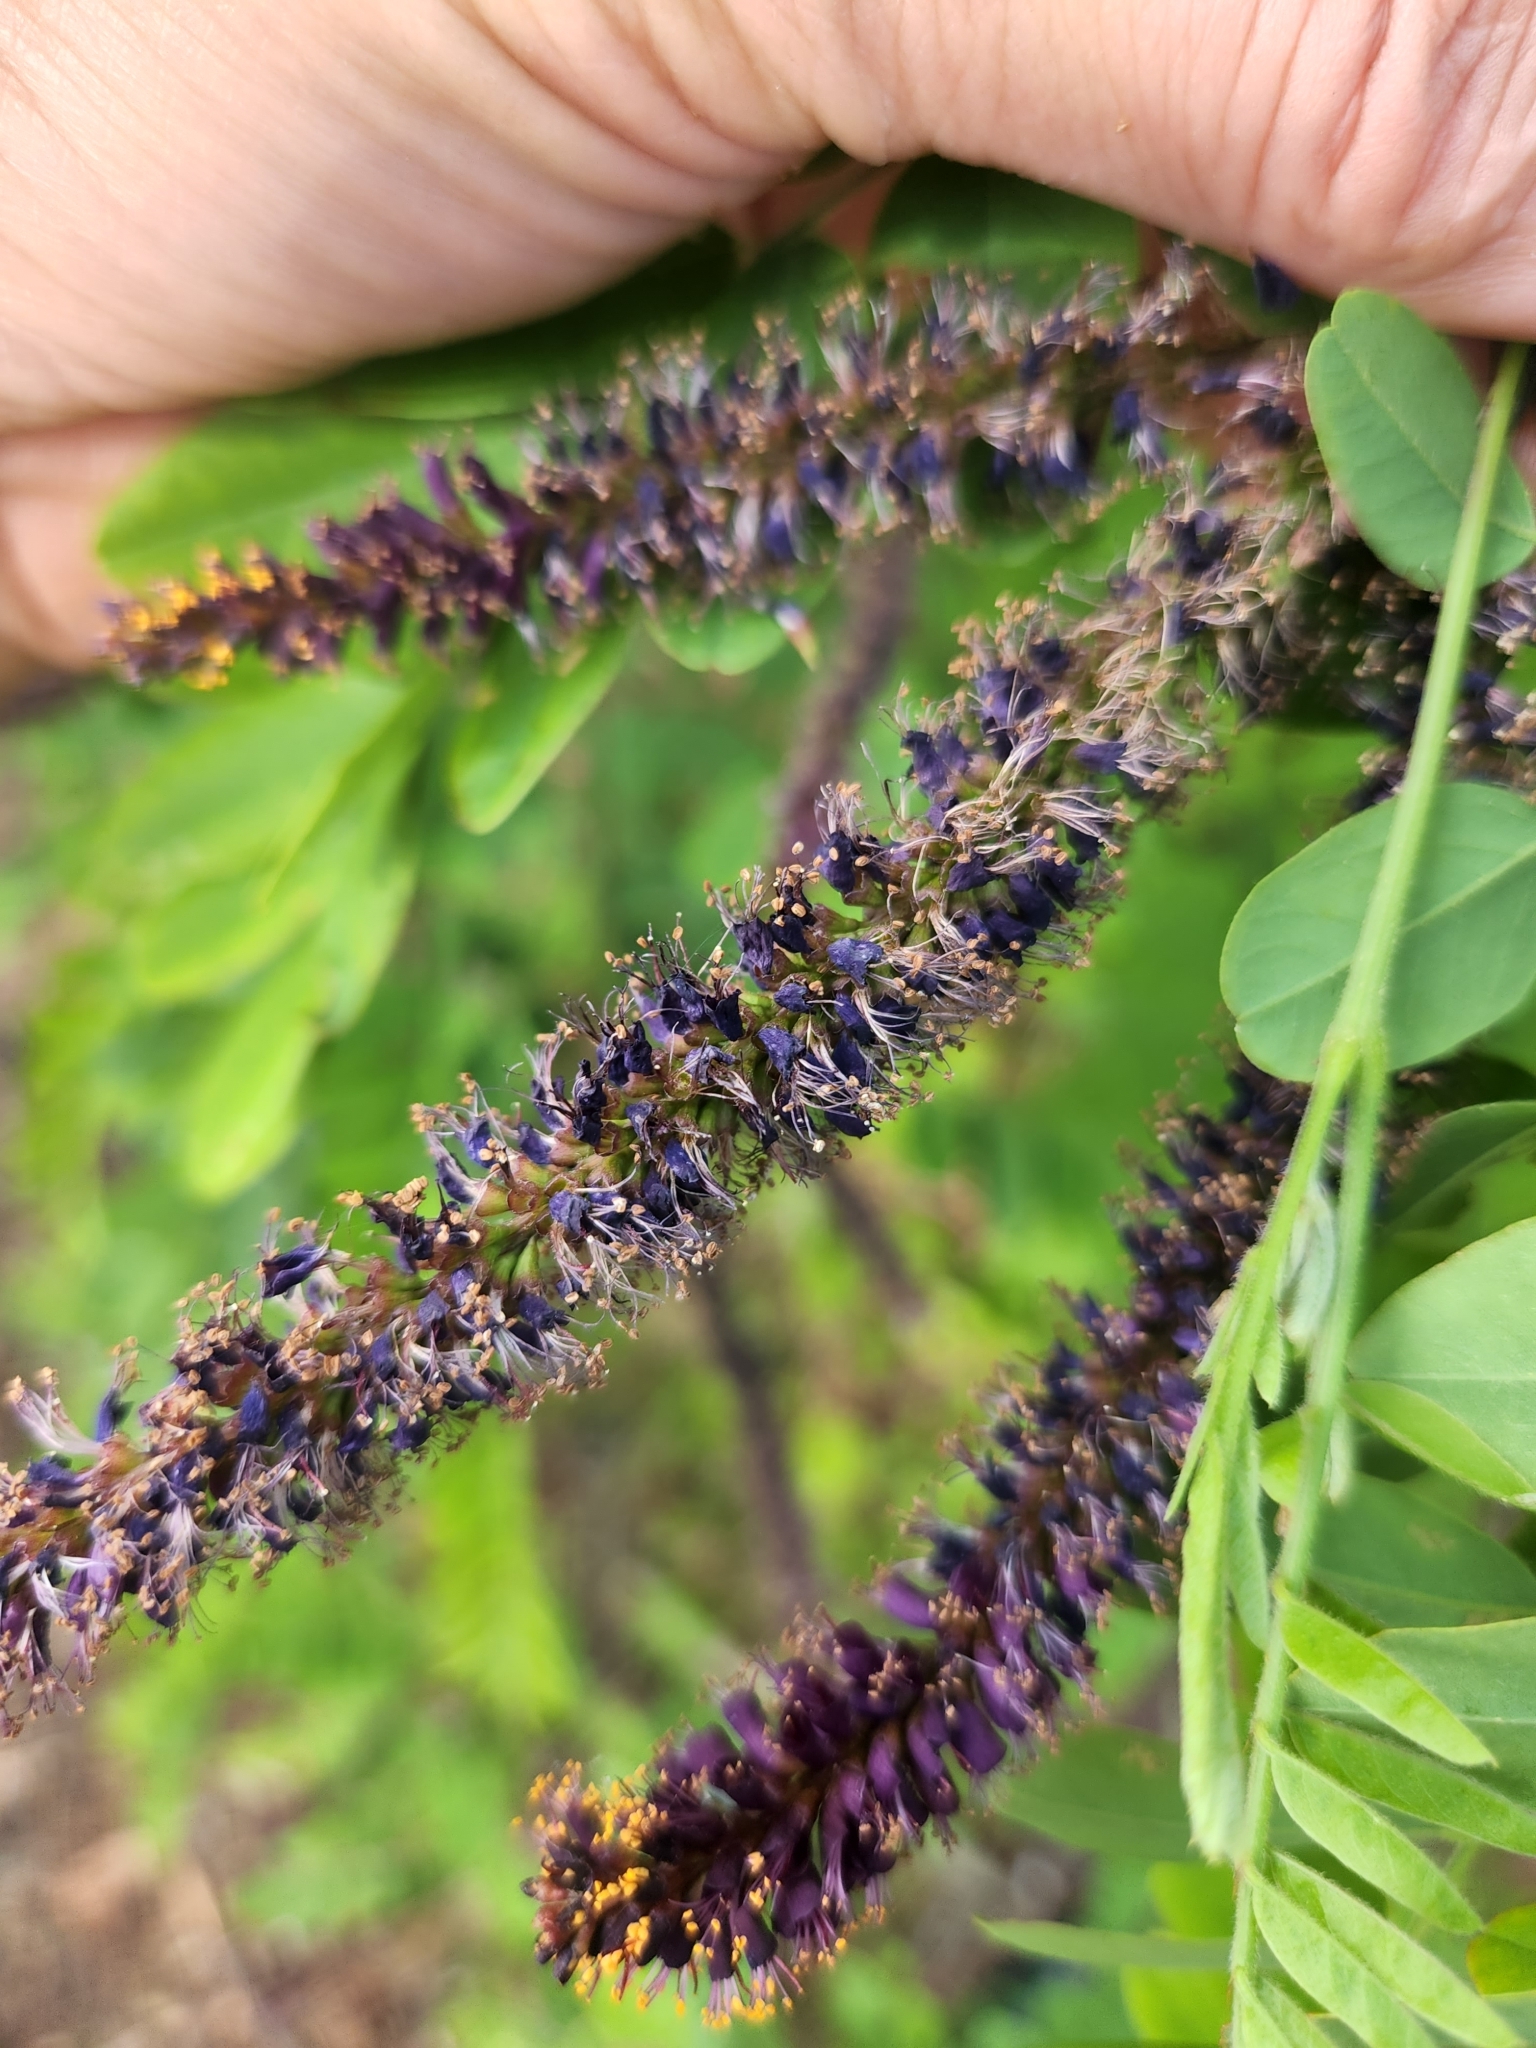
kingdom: Plantae
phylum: Tracheophyta
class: Magnoliopsida
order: Fabales
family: Fabaceae
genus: Amorpha
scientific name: Amorpha fruticosa
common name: False indigo
